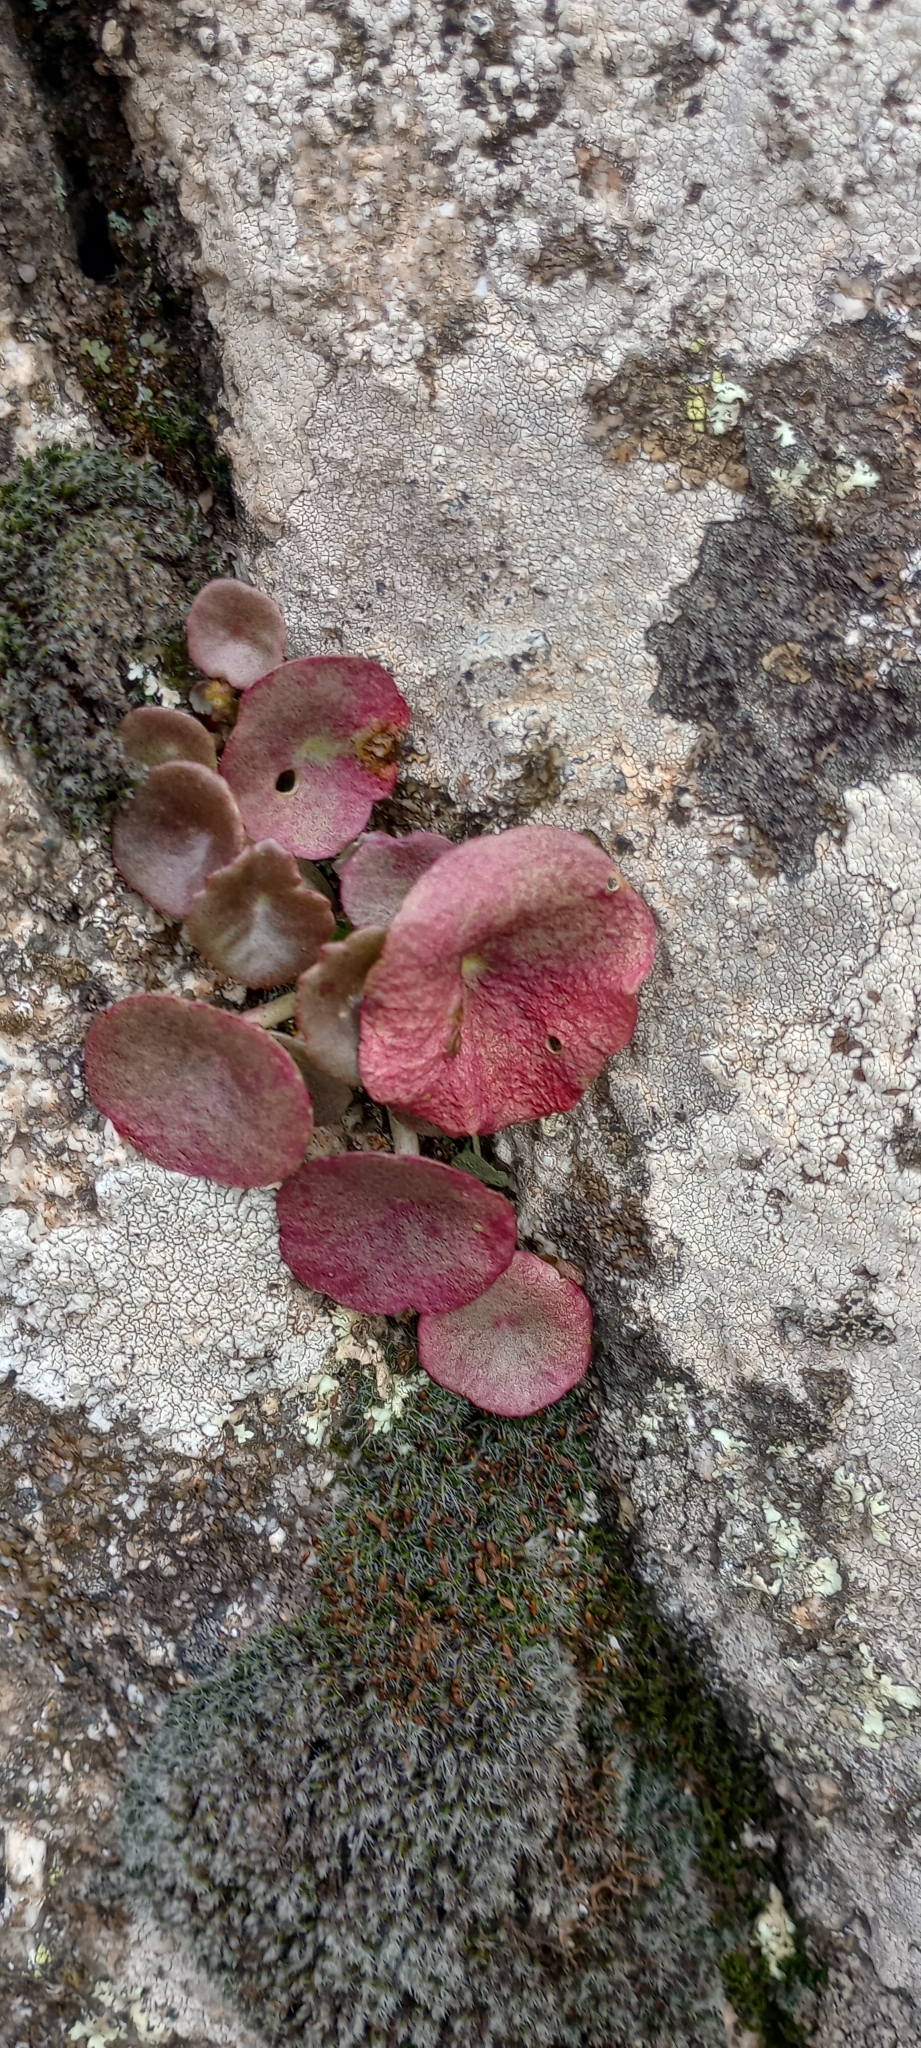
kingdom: Plantae
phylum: Tracheophyta
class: Magnoliopsida
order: Saxifragales
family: Crassulaceae
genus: Umbilicus
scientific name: Umbilicus rupestris
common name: Navelwort
